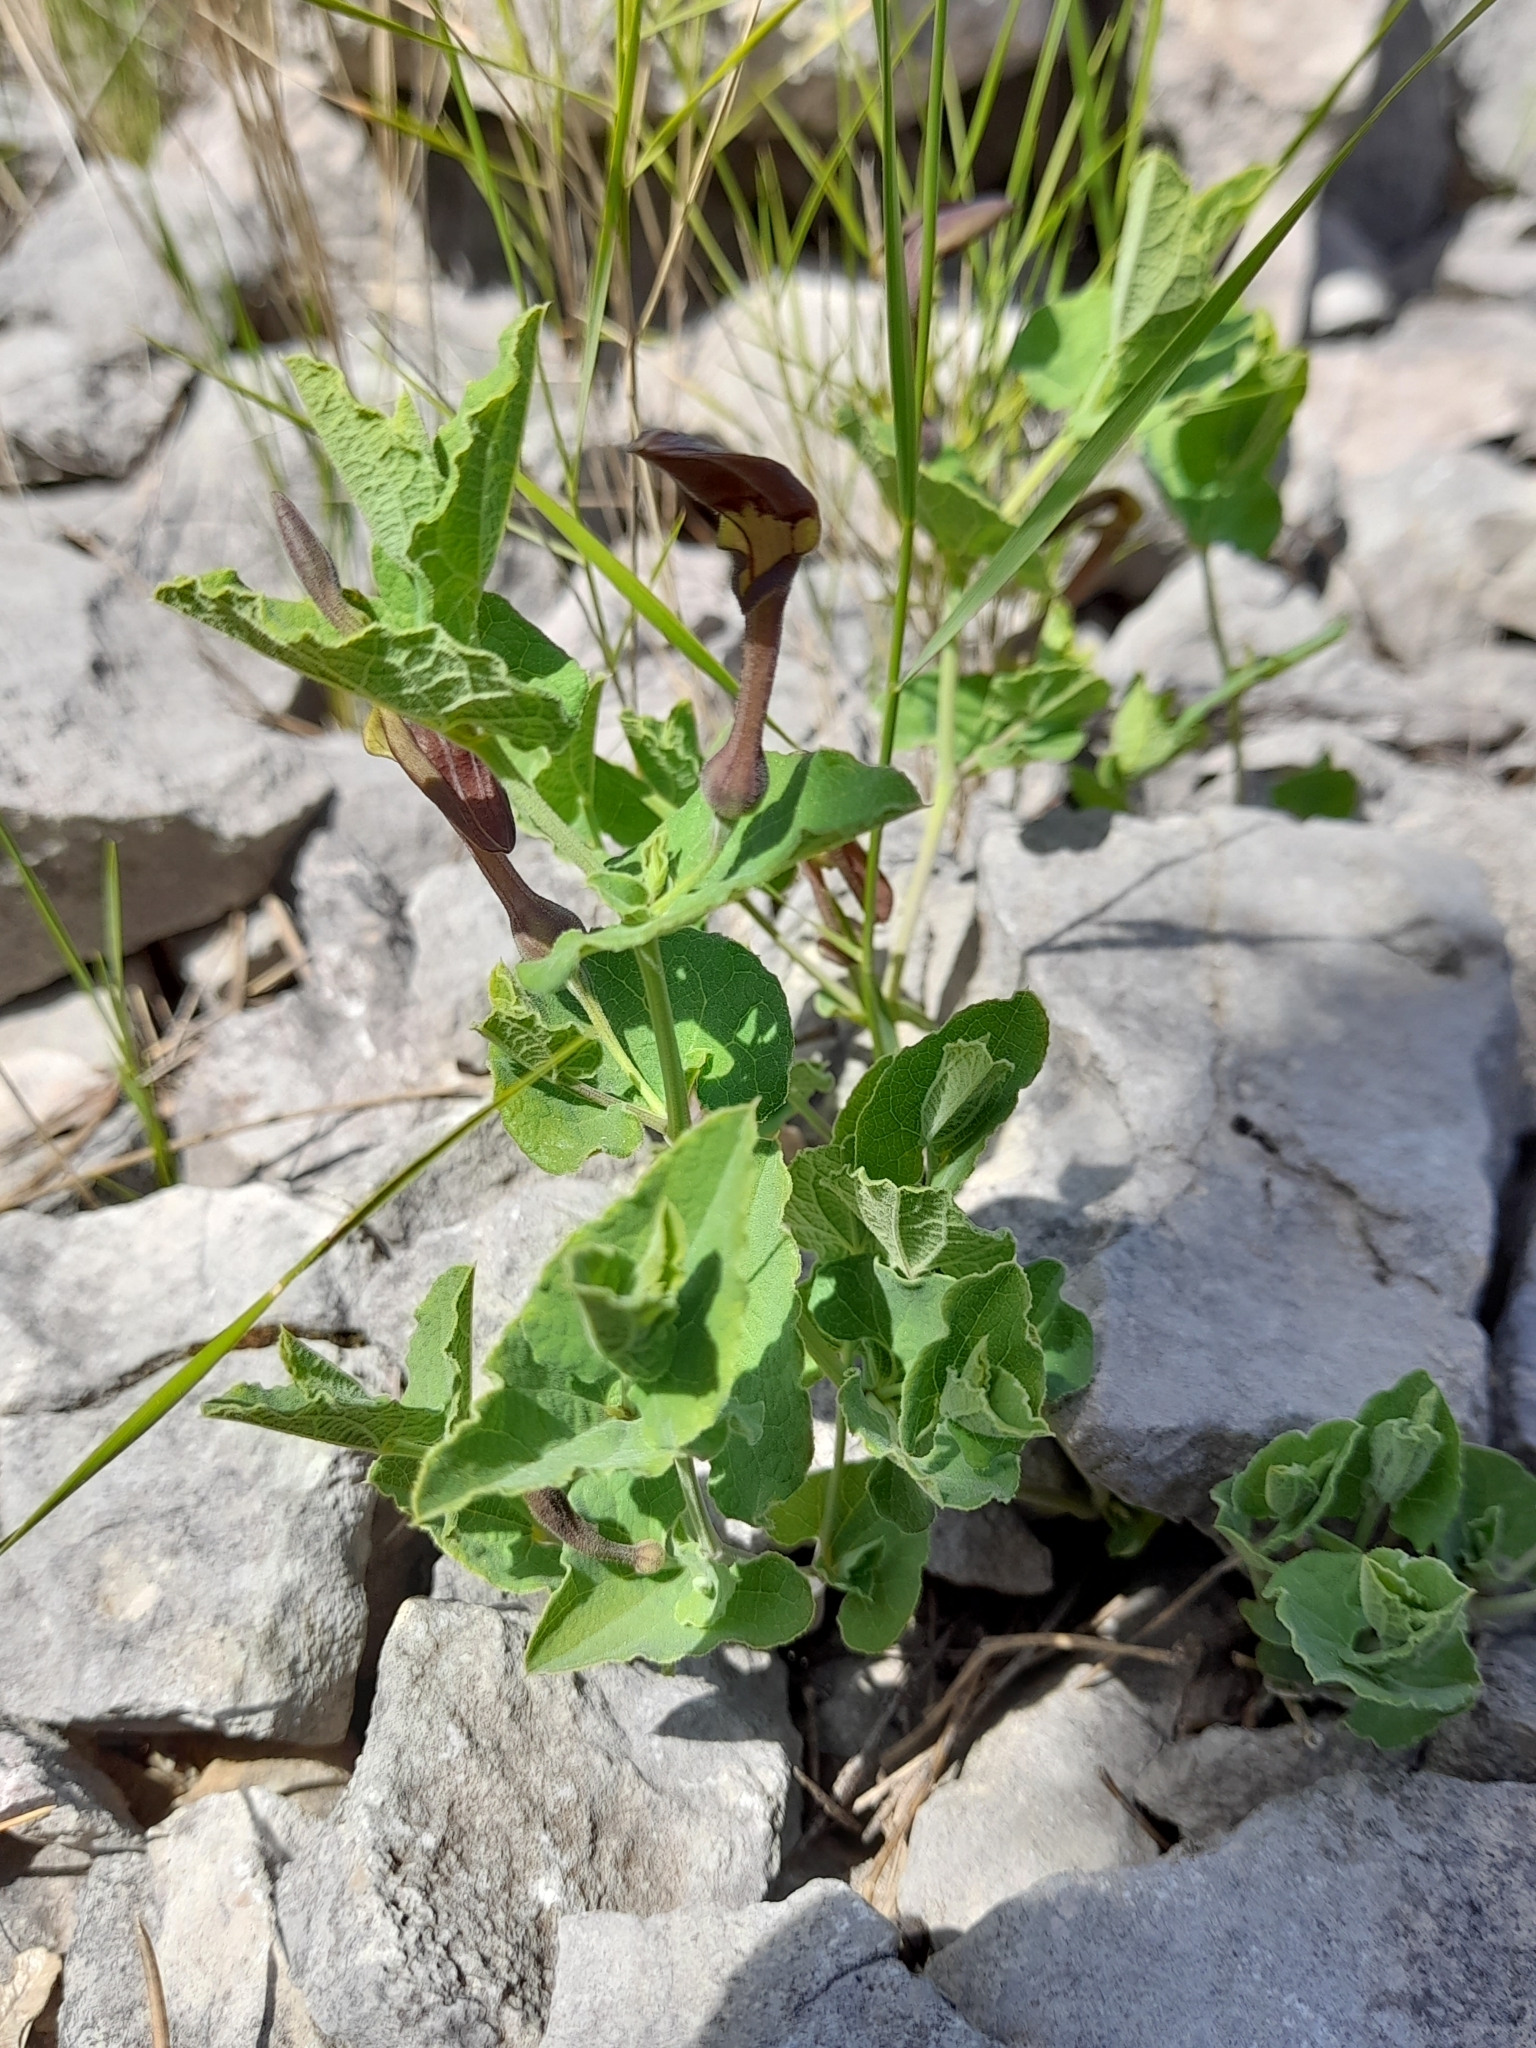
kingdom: Plantae
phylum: Tracheophyta
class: Magnoliopsida
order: Piperales
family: Aristolochiaceae
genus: Aristolochia
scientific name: Aristolochia pistolochia
